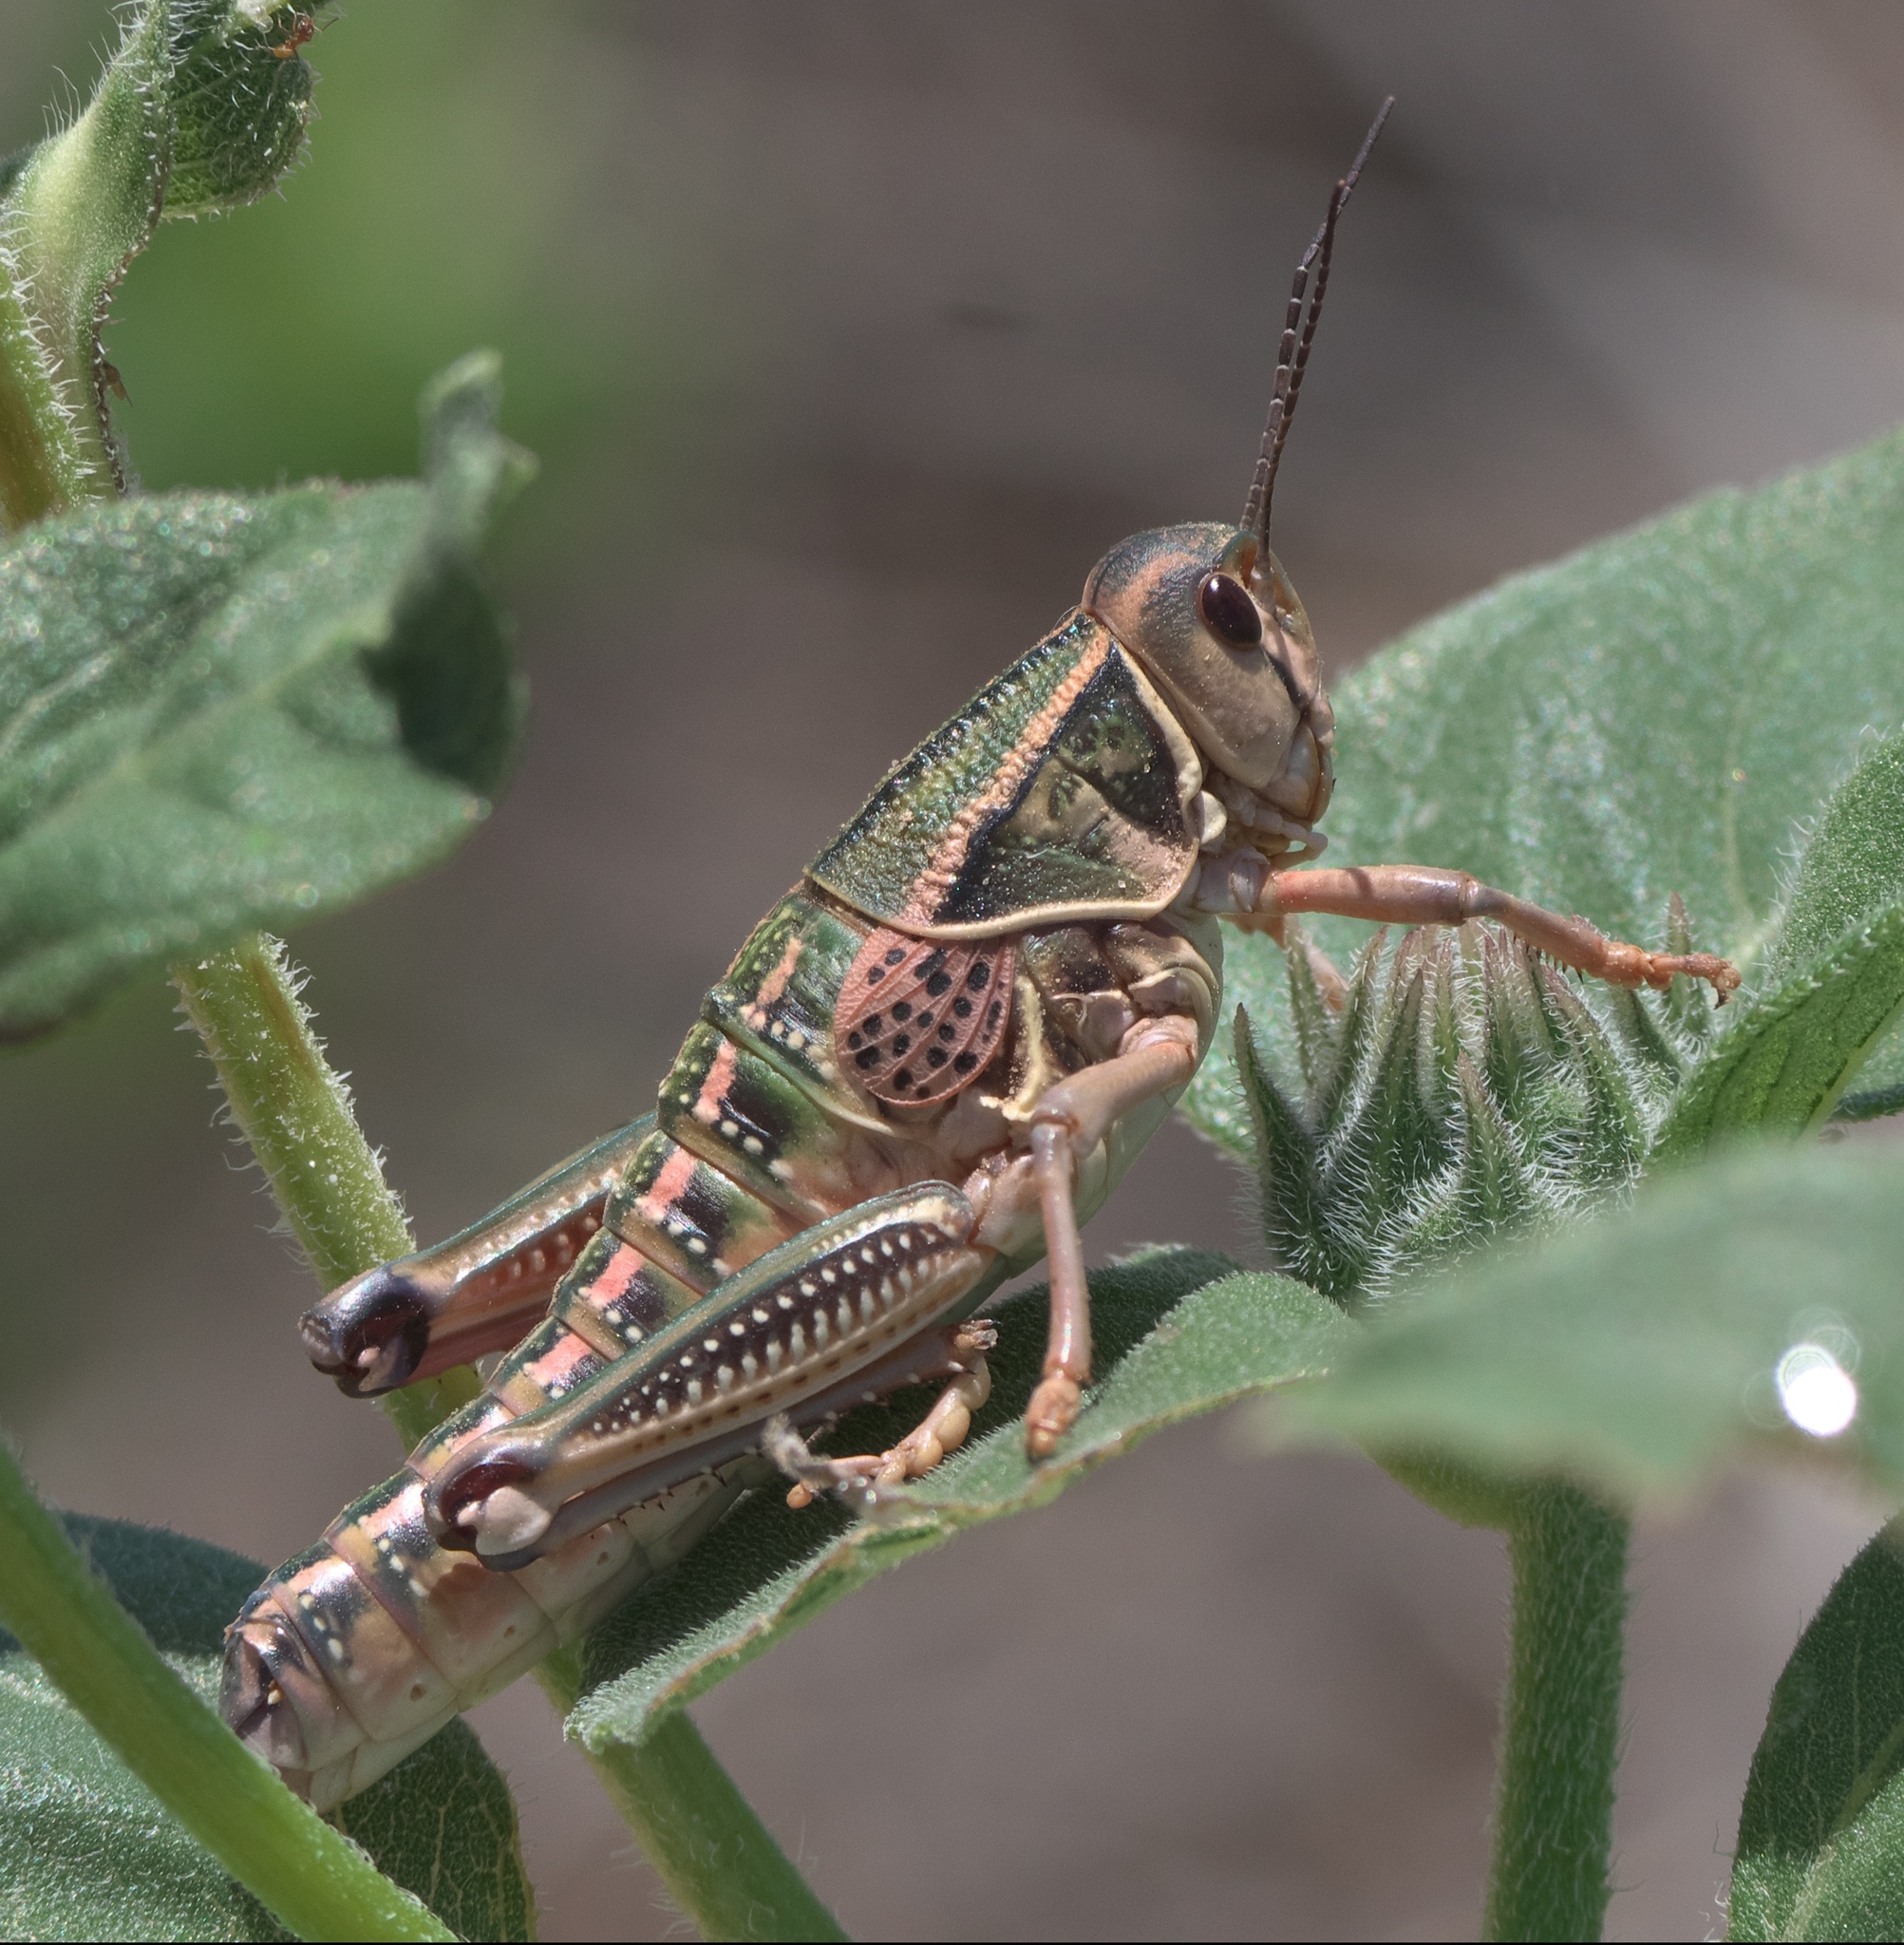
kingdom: Animalia
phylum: Arthropoda
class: Insecta
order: Orthoptera
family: Romaleidae
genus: Brachystola
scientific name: Brachystola magna
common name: Plains lubber grasshopper
